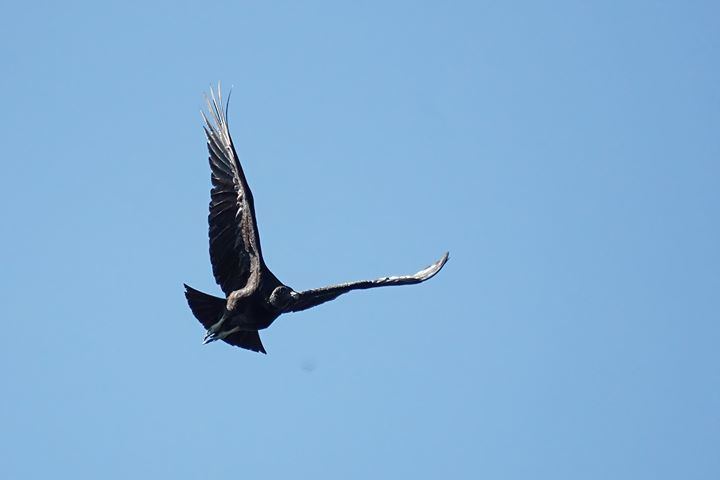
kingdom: Animalia
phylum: Chordata
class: Aves
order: Accipitriformes
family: Cathartidae
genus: Coragyps
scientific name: Coragyps atratus
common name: Black vulture
